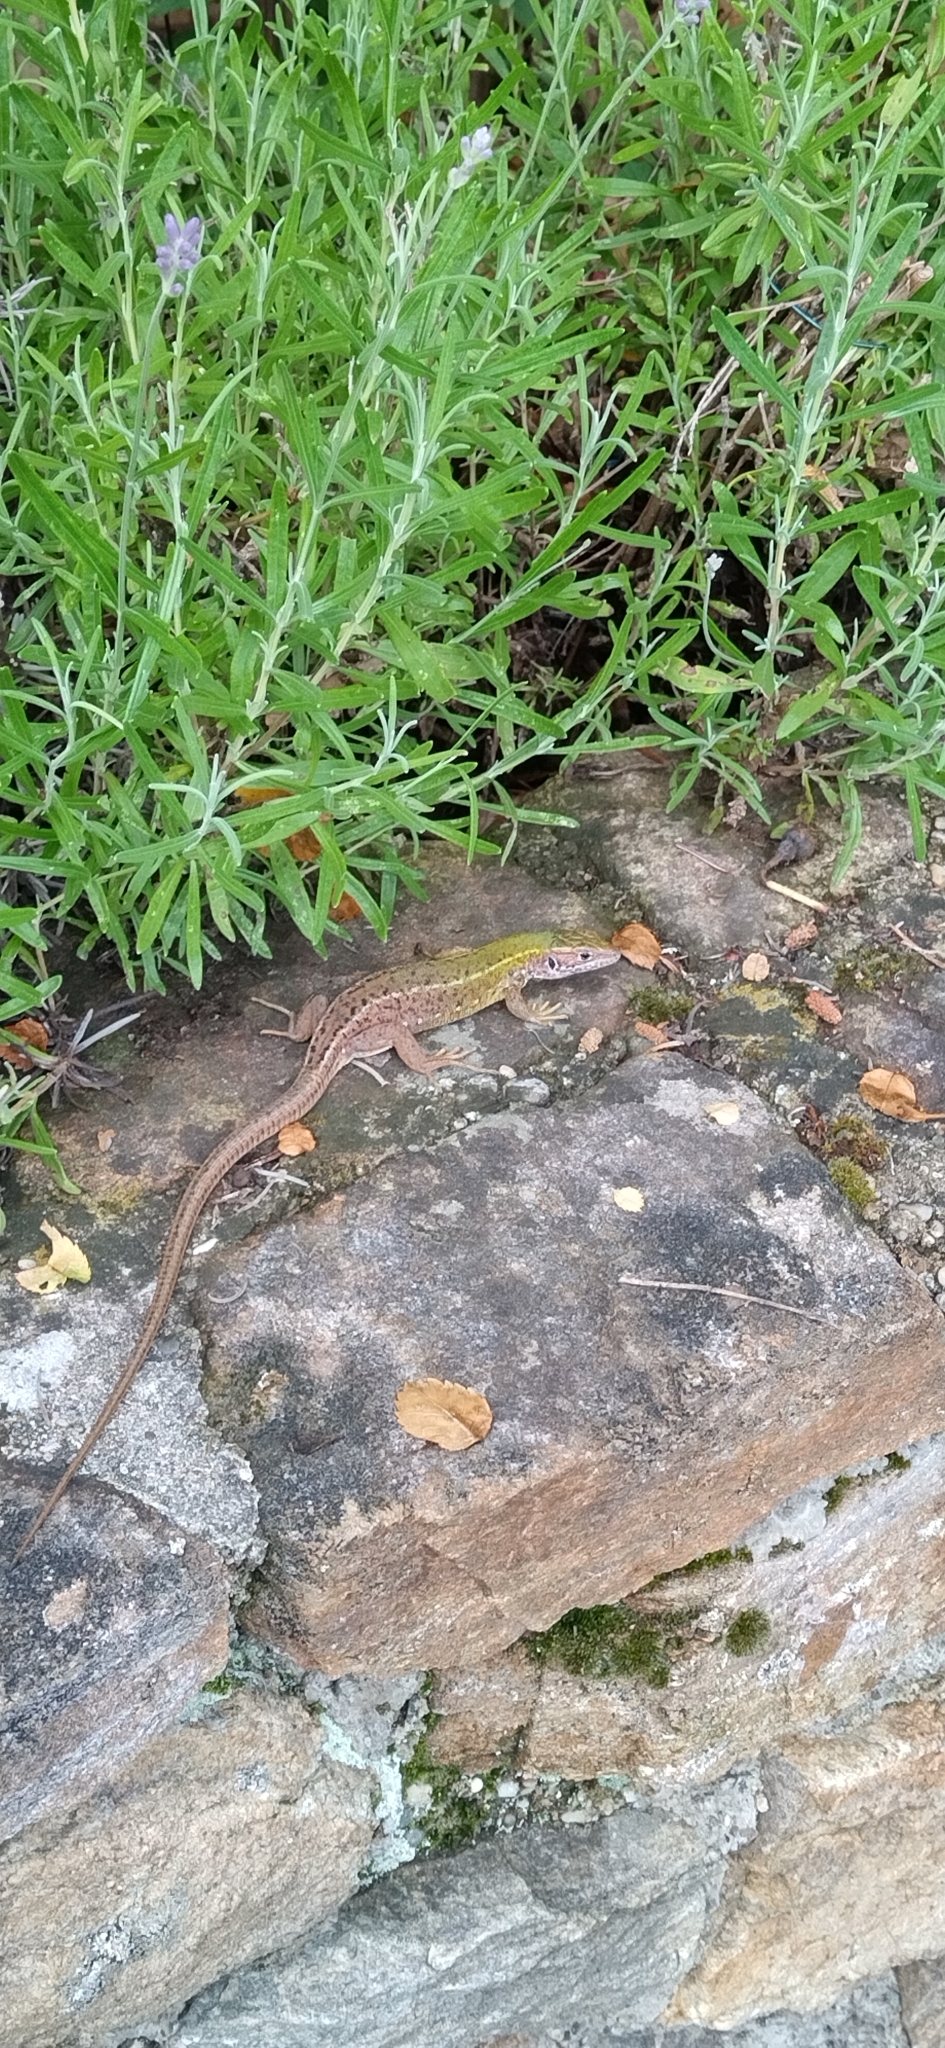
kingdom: Animalia
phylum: Chordata
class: Squamata
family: Lacertidae
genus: Lacerta
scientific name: Lacerta viridis
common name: European green lizard
